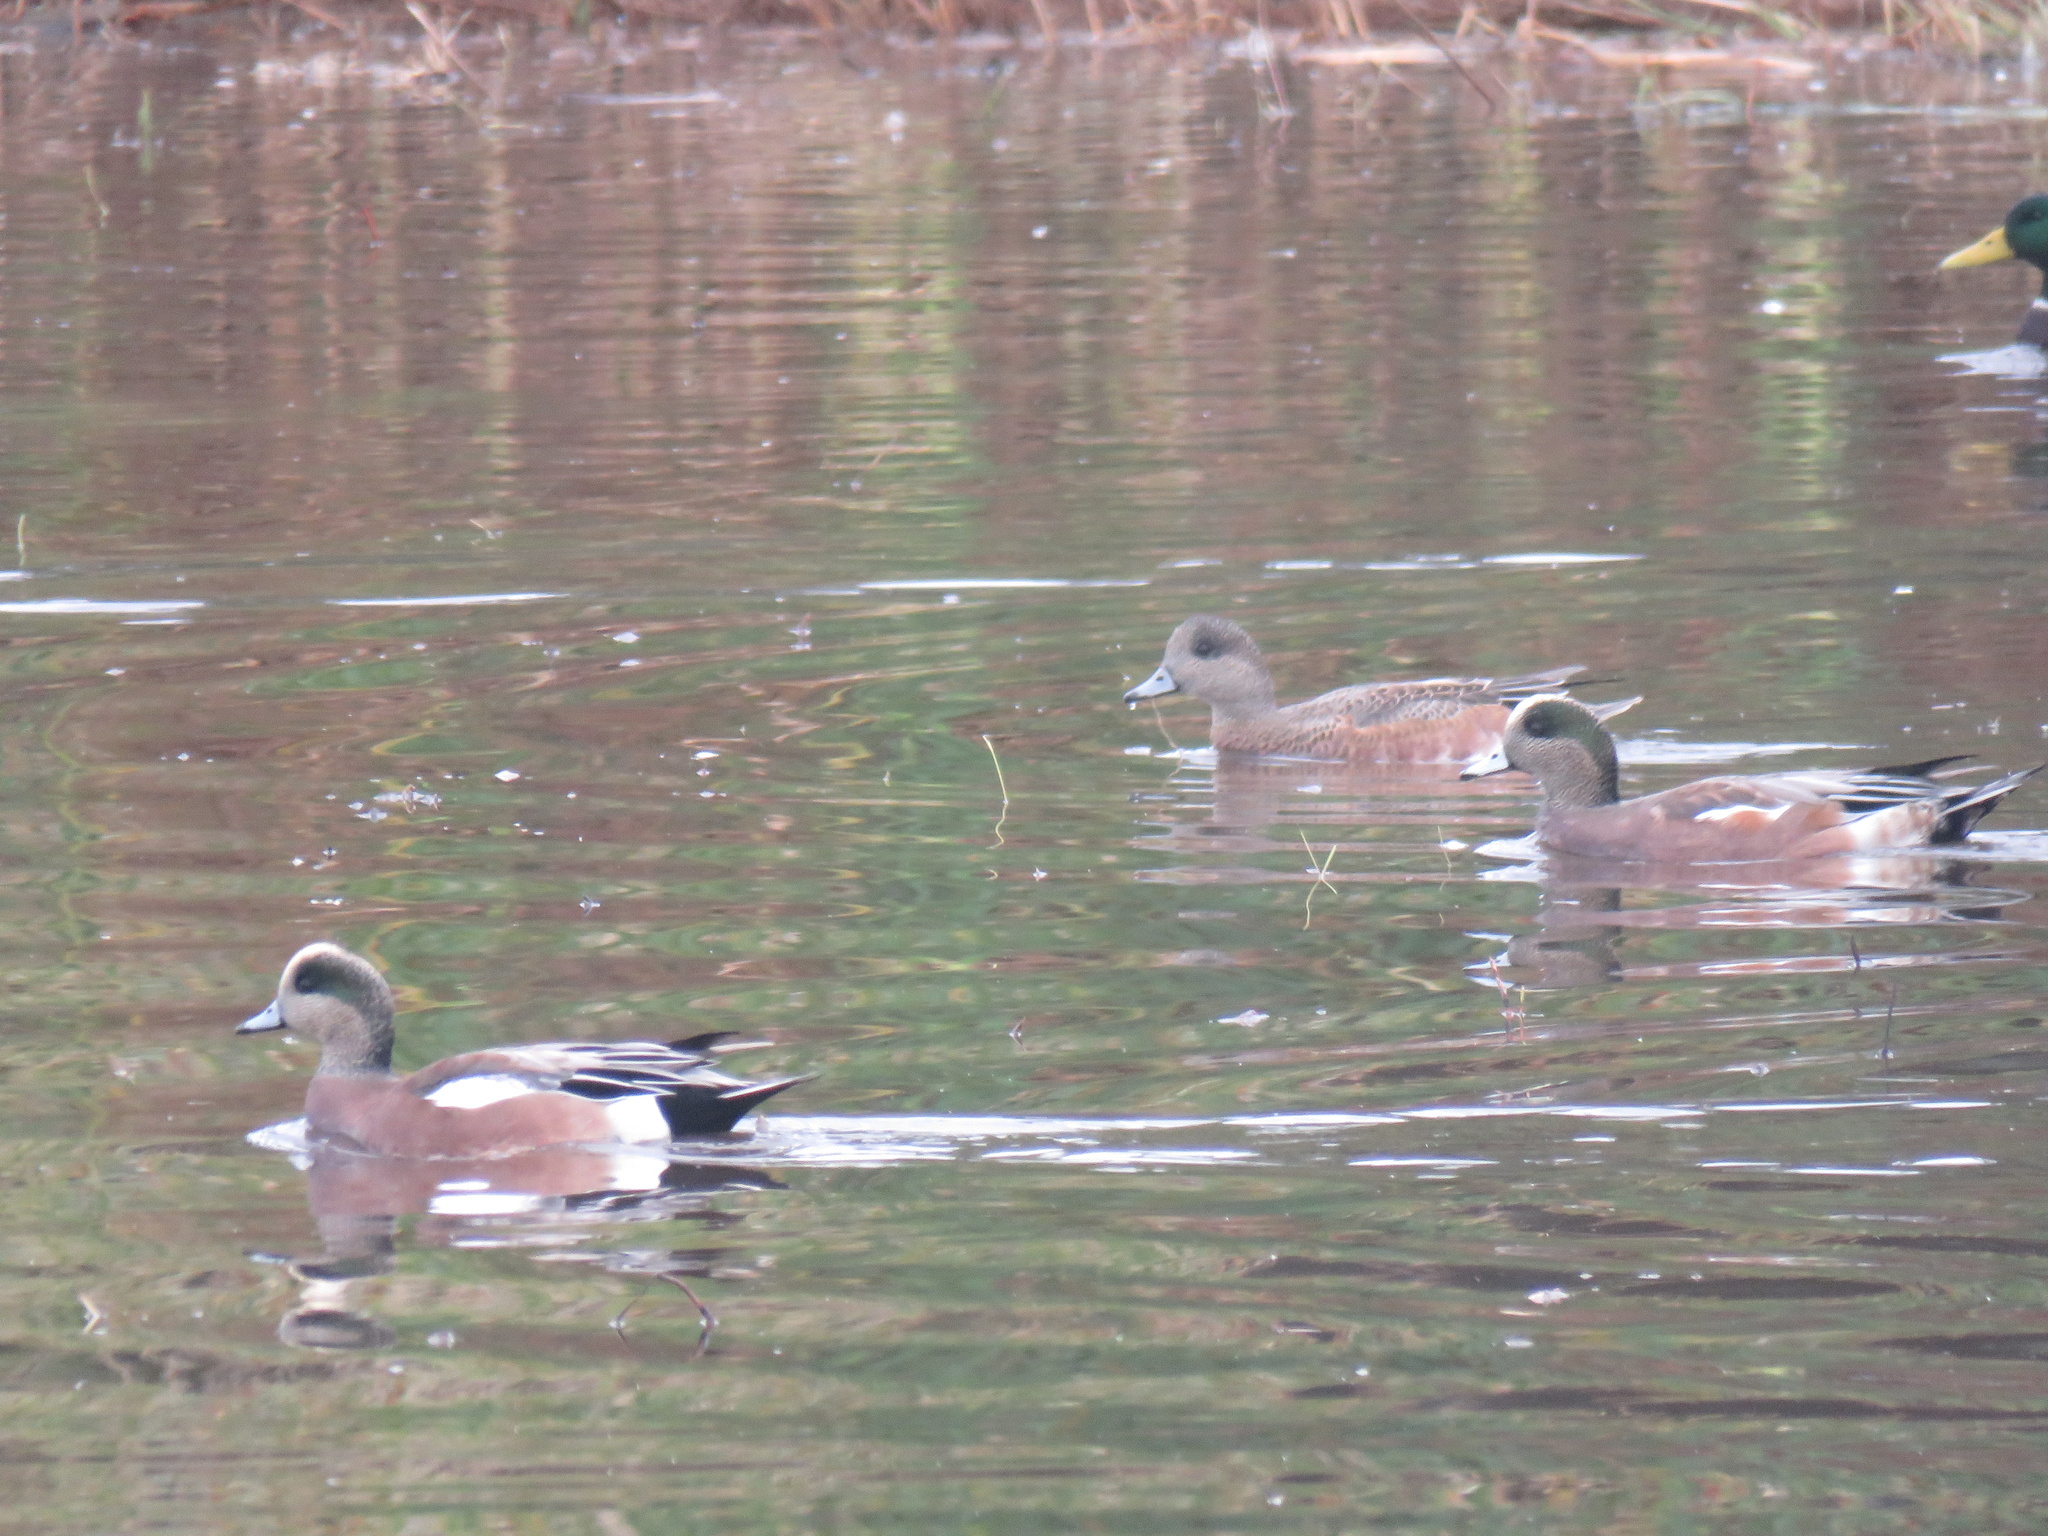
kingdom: Animalia
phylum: Chordata
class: Aves
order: Anseriformes
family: Anatidae
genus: Mareca
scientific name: Mareca americana
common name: American wigeon
